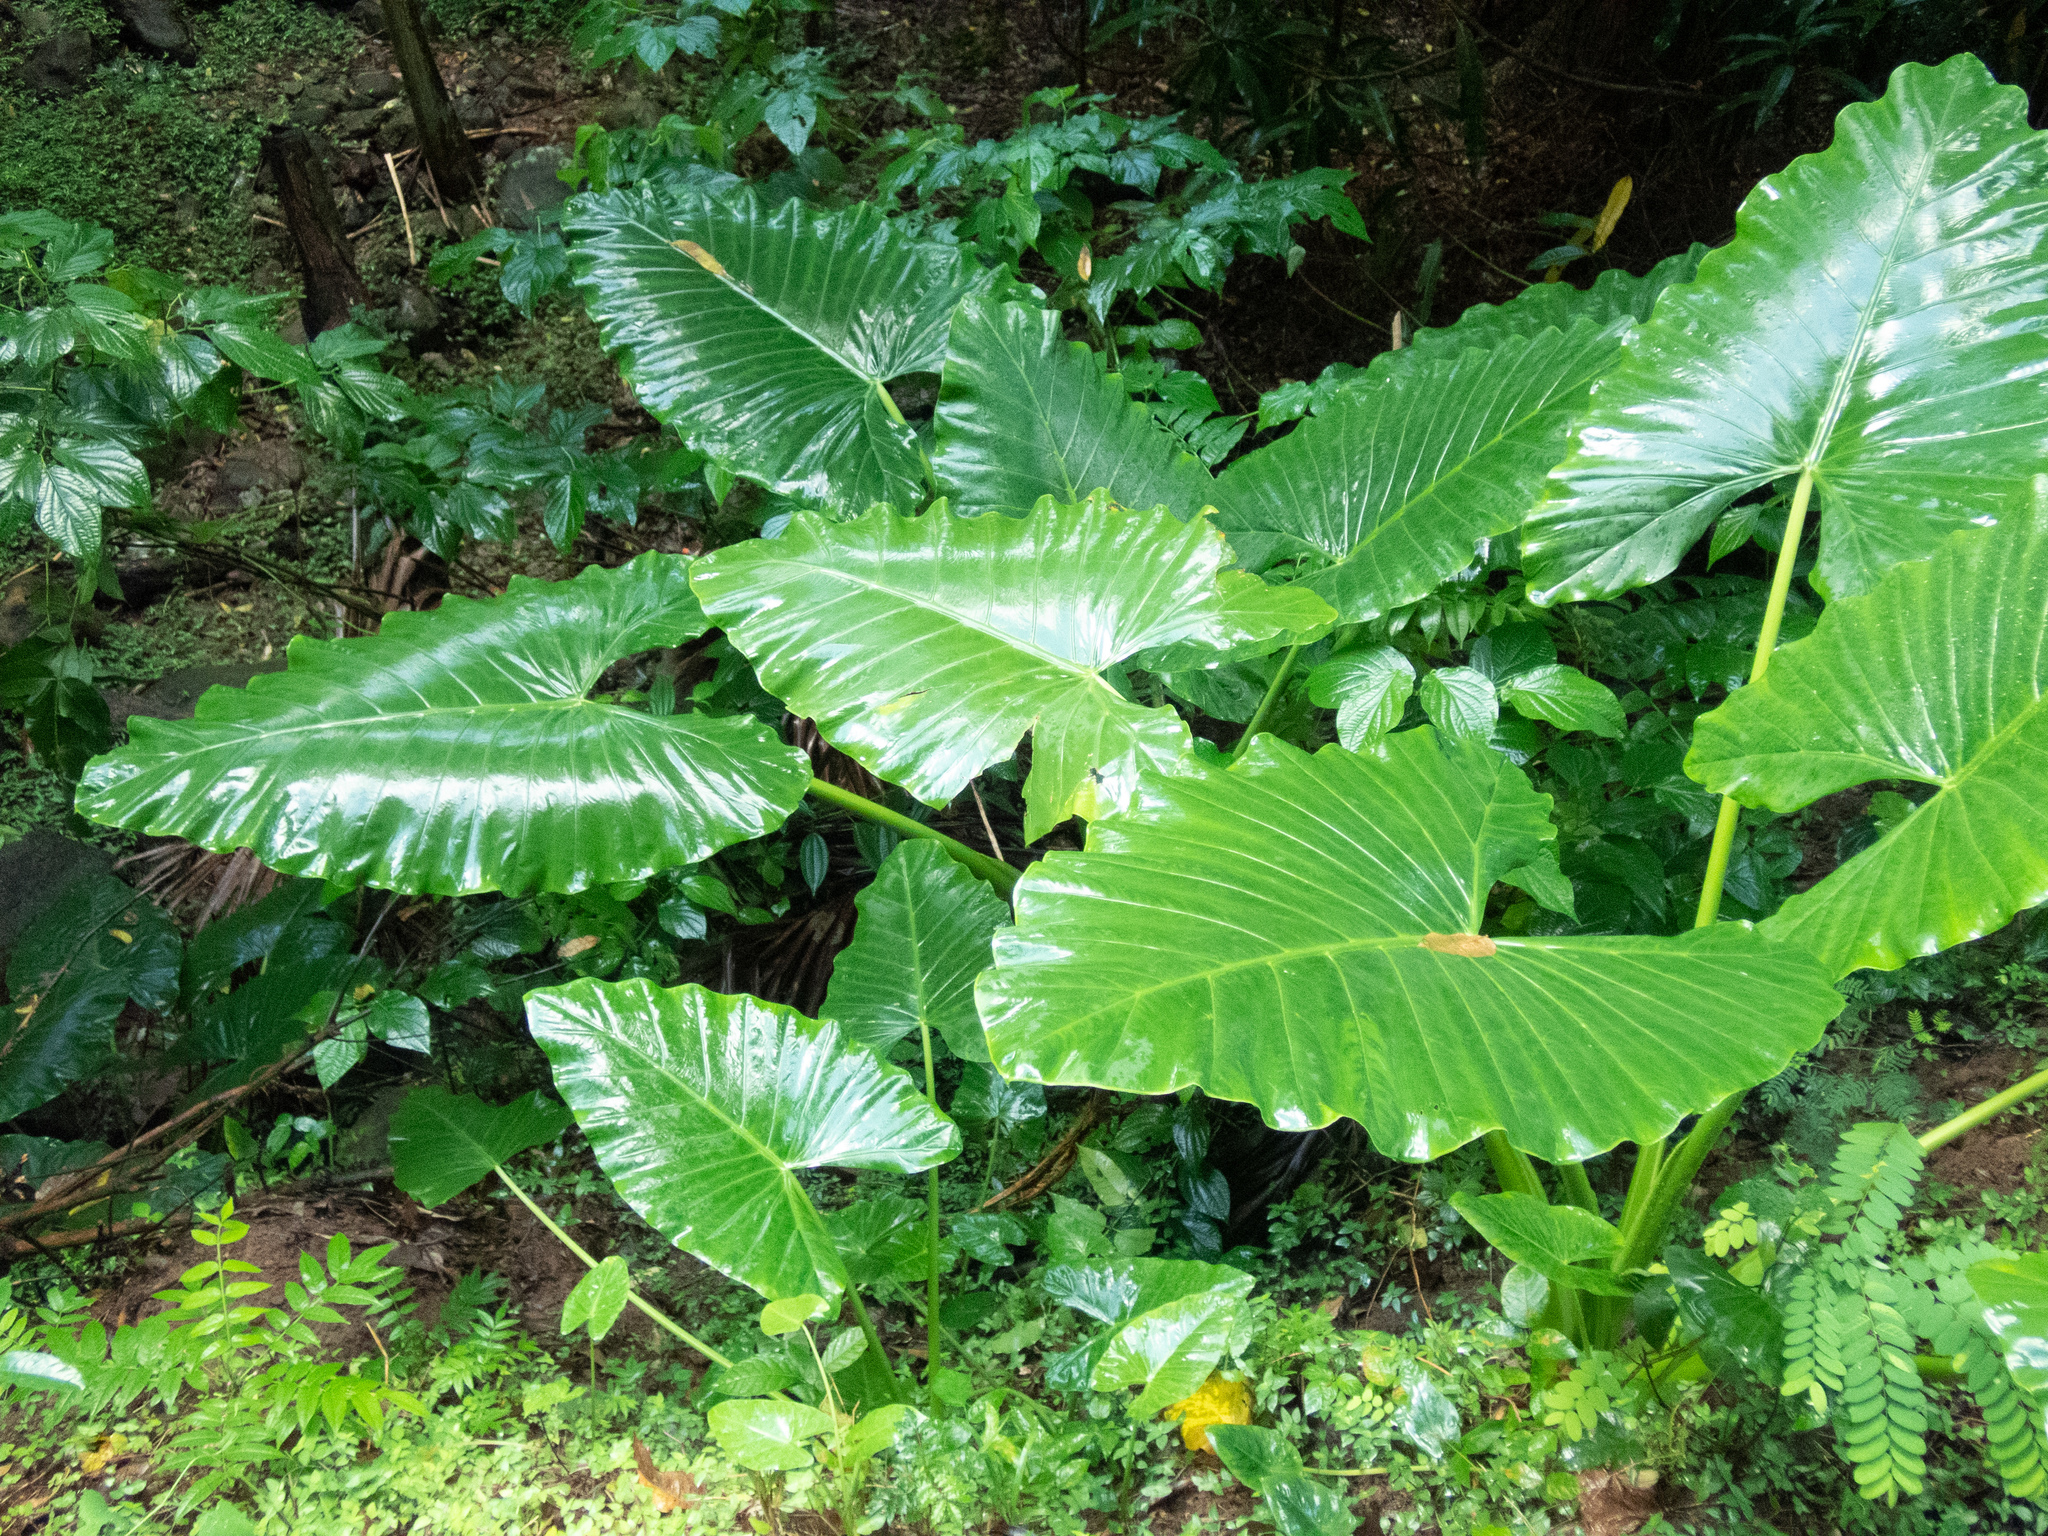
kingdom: Plantae
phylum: Tracheophyta
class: Liliopsida
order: Alismatales
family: Araceae
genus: Alocasia
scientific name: Alocasia macrorrhizos
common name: Giant taro
